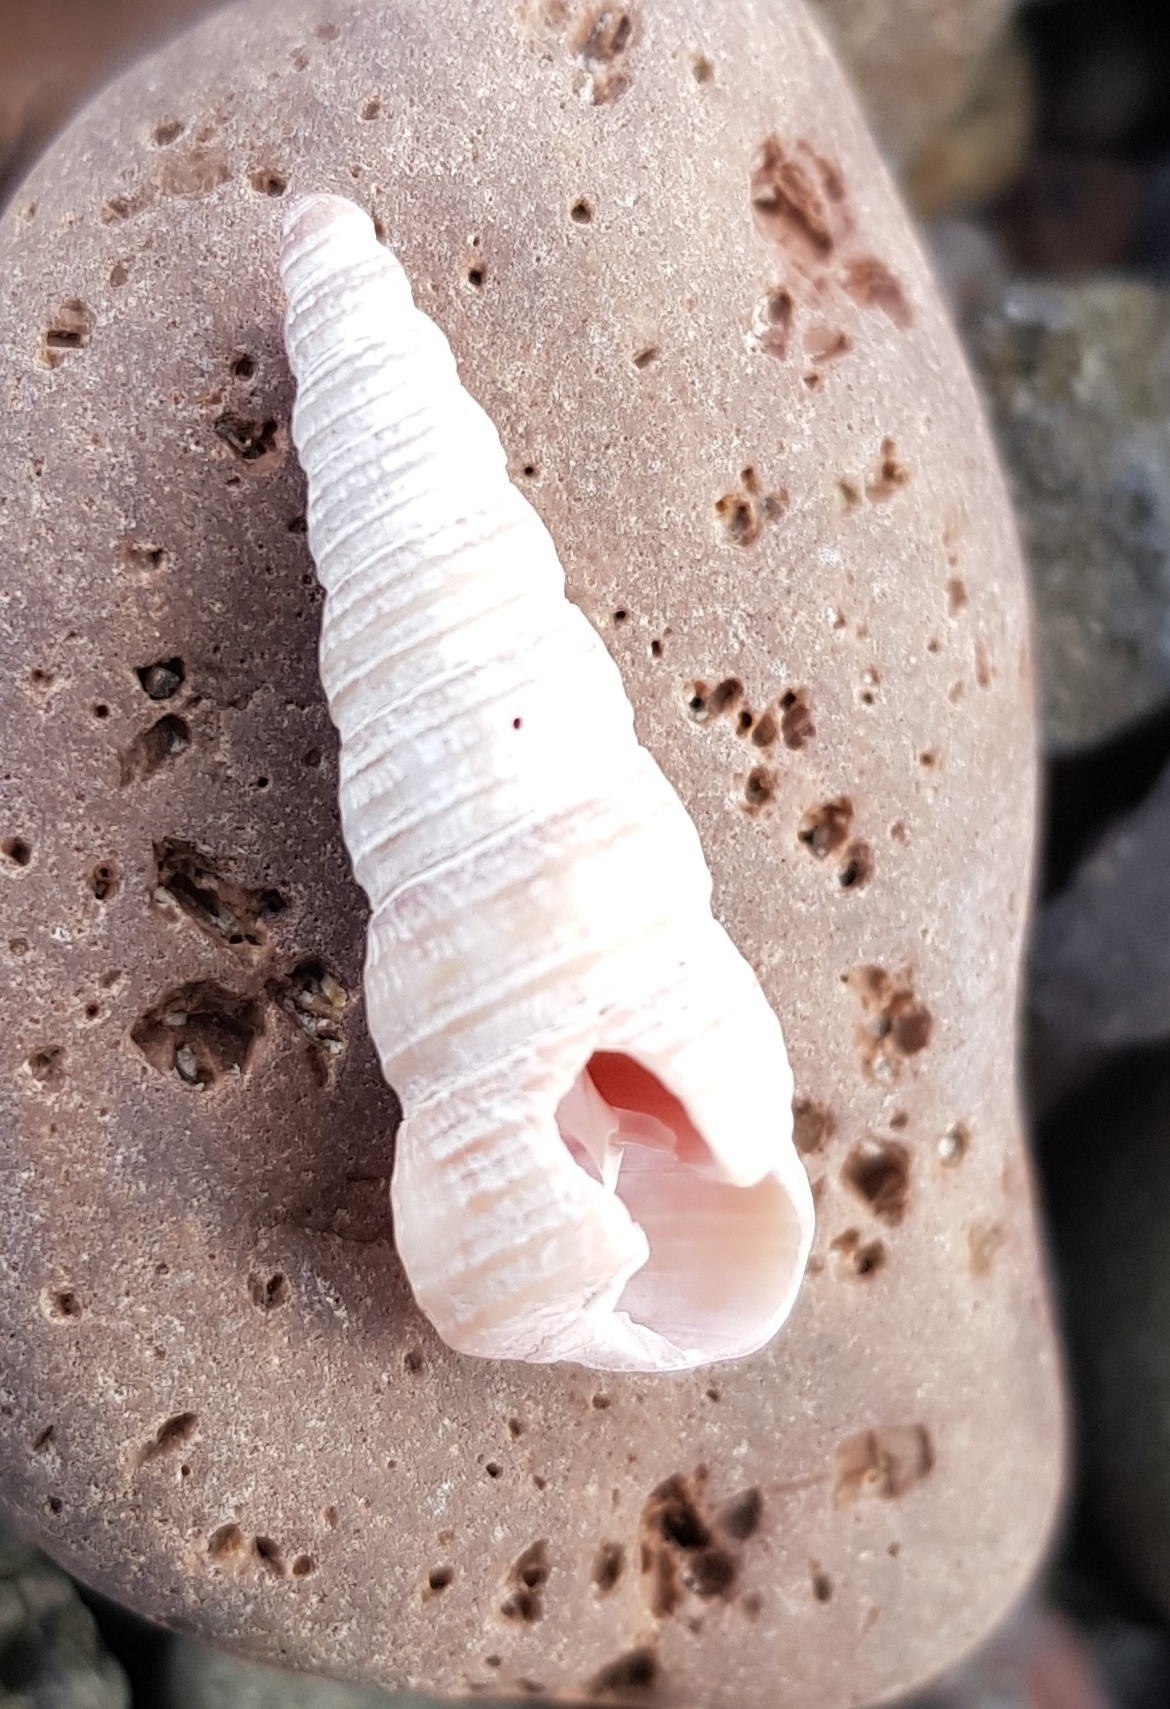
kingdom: Animalia
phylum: Mollusca
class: Gastropoda
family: Turritellidae
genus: Turritellinella
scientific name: Turritellinella tricarinata
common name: Auger shell
